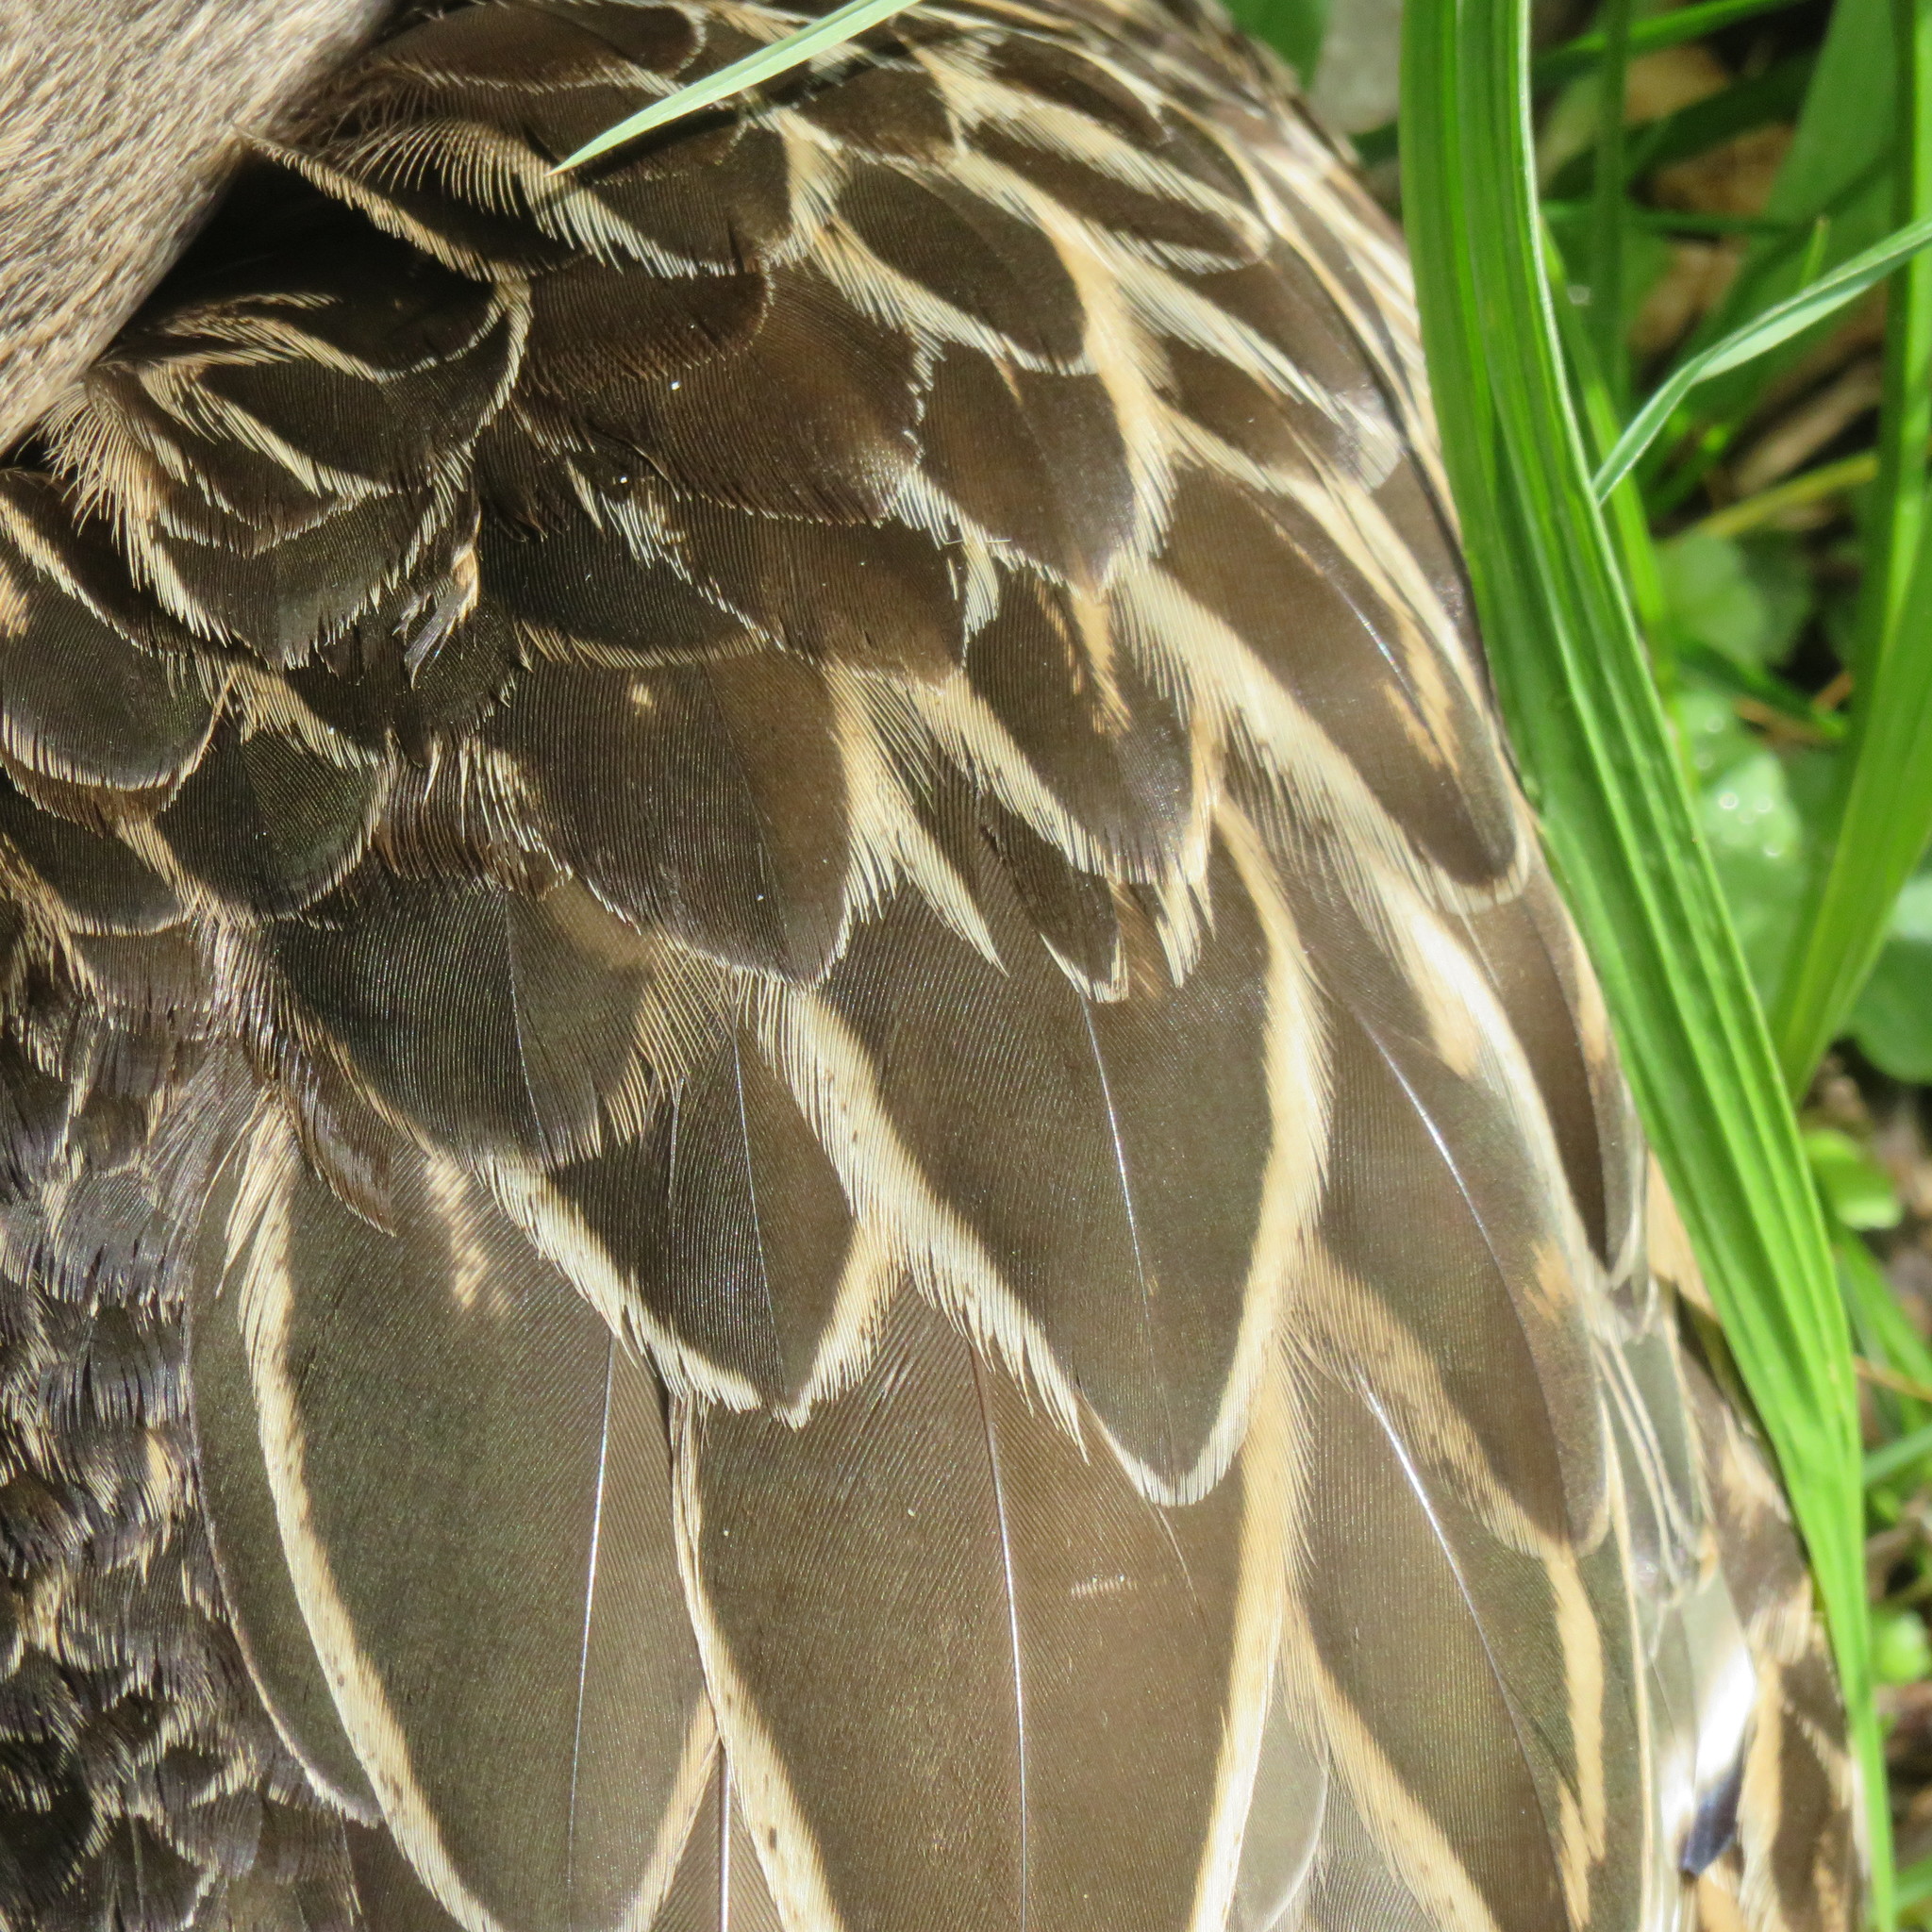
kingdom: Animalia
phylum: Chordata
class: Aves
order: Anseriformes
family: Anatidae
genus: Anas
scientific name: Anas
